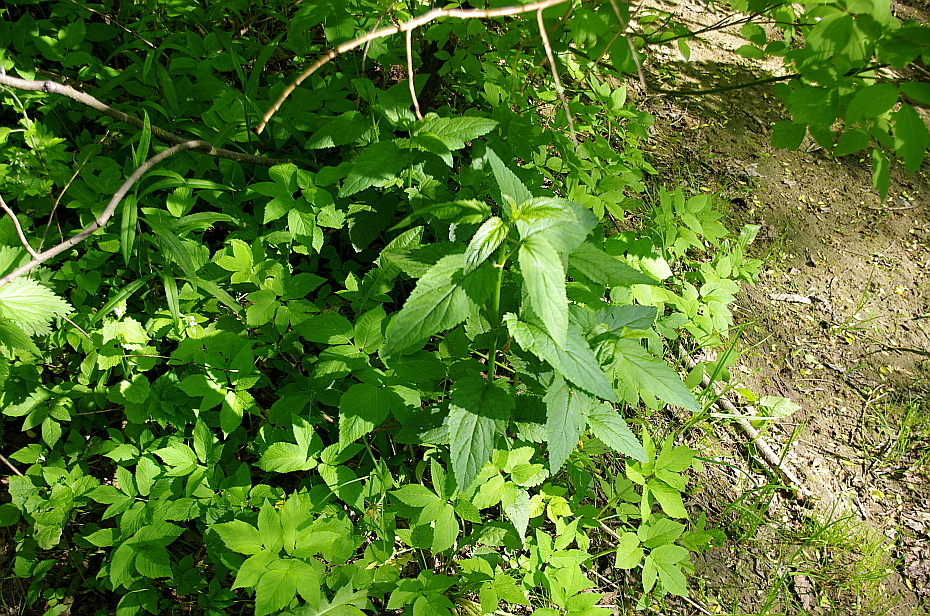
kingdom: Plantae
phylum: Tracheophyta
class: Magnoliopsida
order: Lamiales
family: Scrophulariaceae
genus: Scrophularia
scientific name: Scrophularia nodosa
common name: Common figwort
